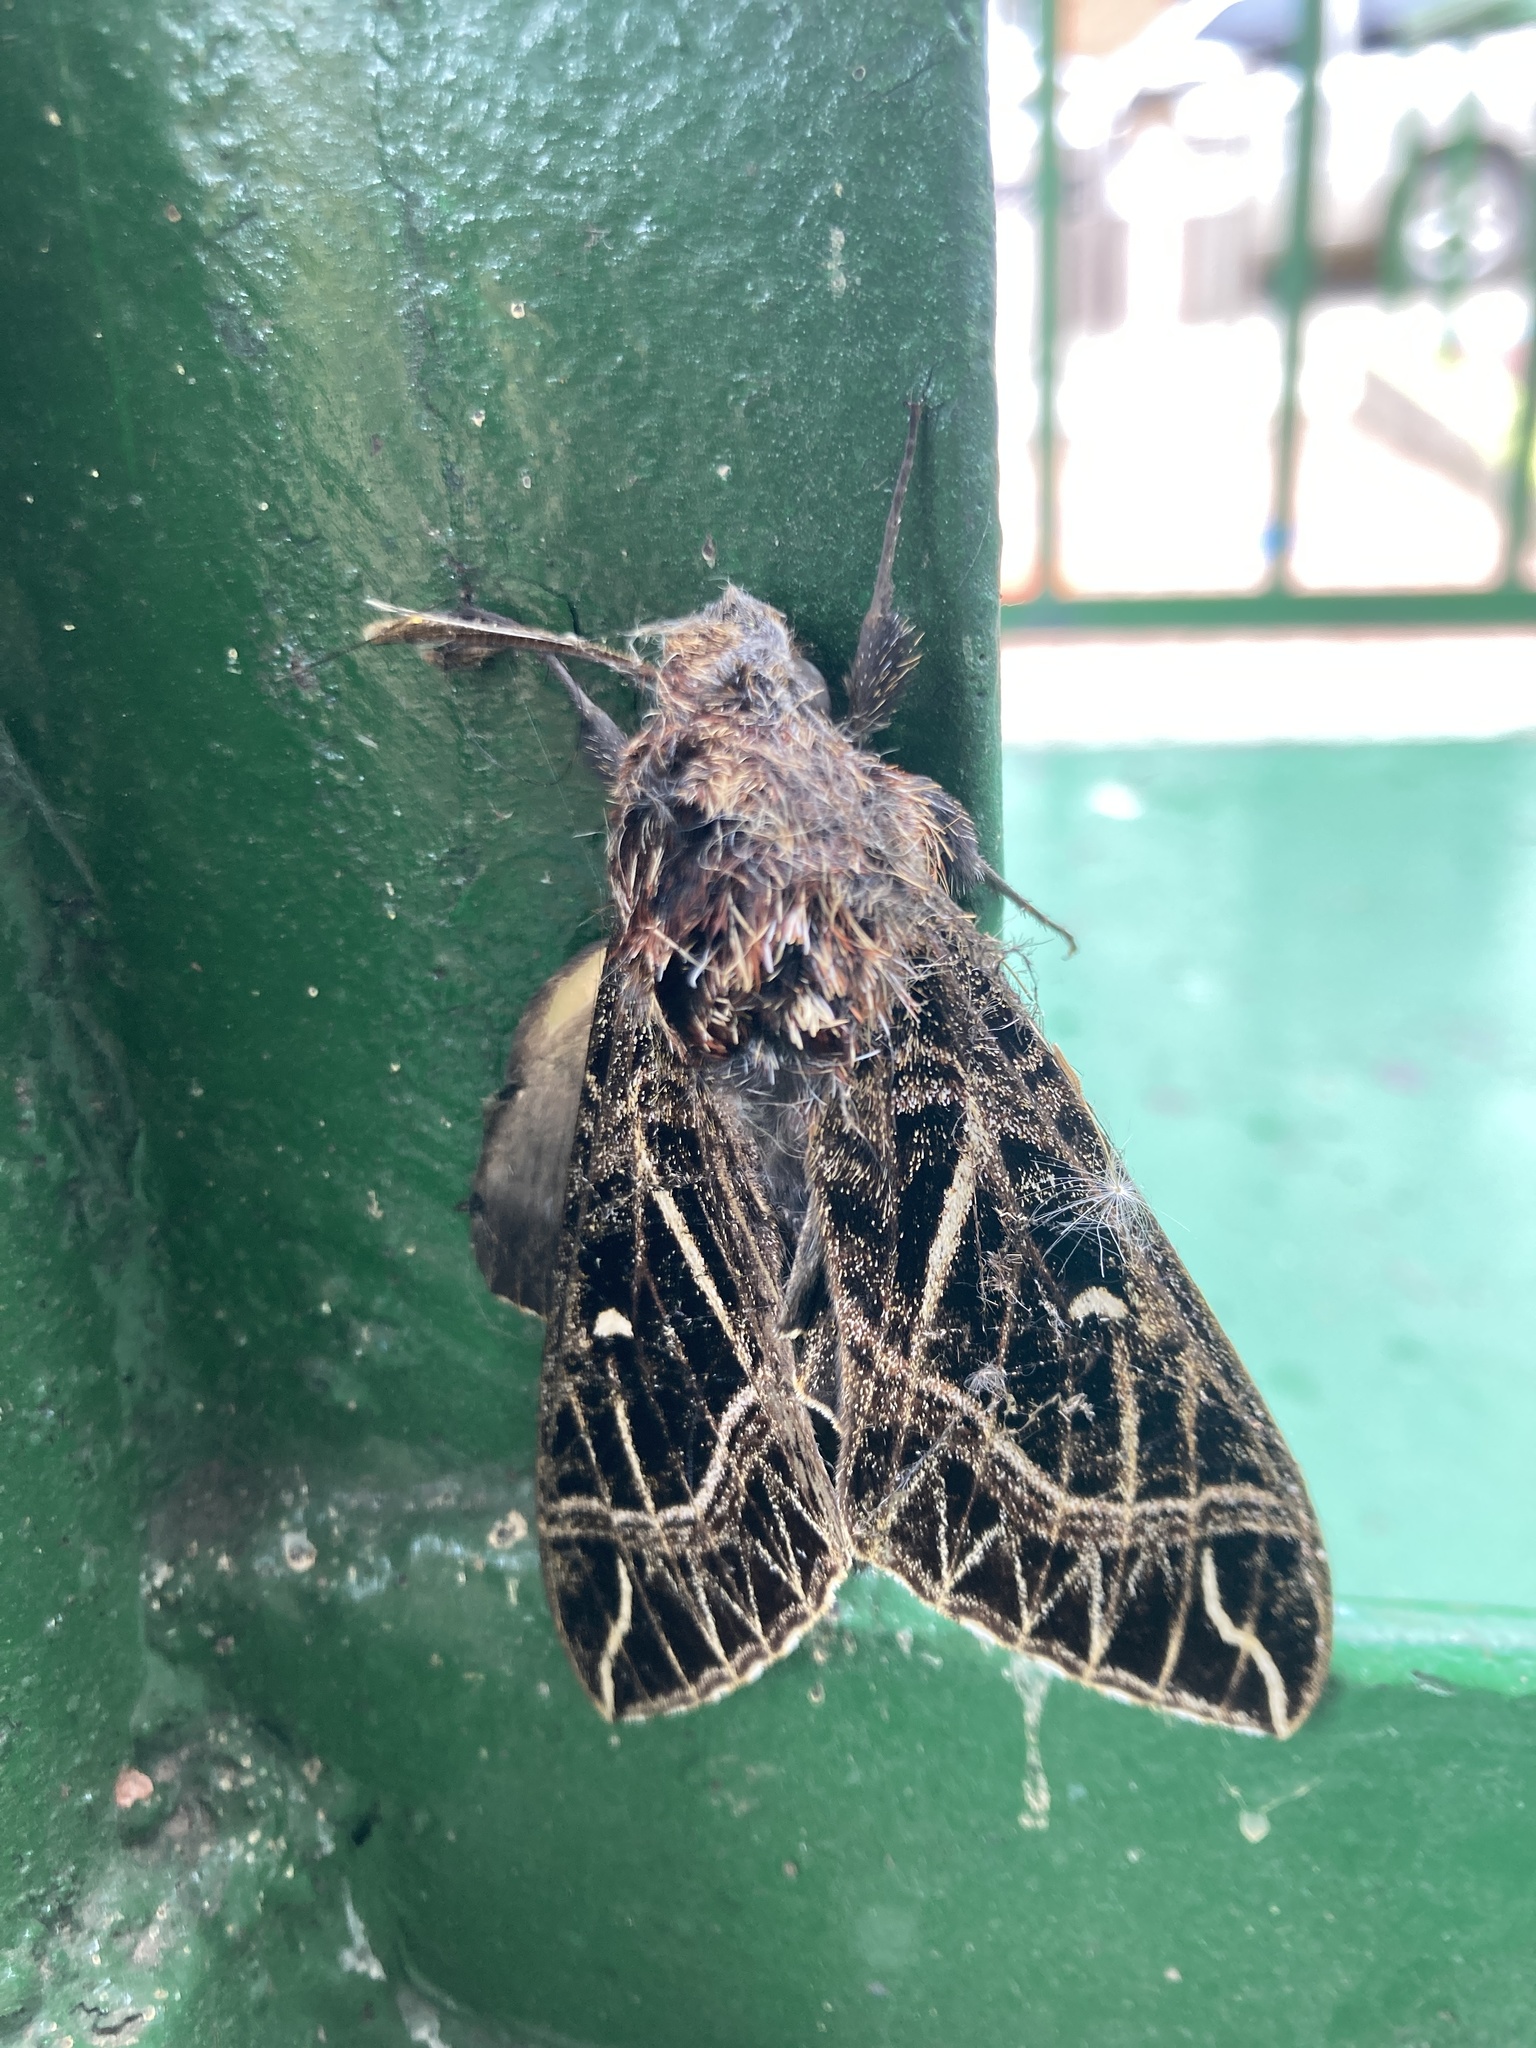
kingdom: Animalia
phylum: Arthropoda
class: Insecta
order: Lepidoptera
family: Sphingidae
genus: Euryglottis
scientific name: Euryglottis aper
